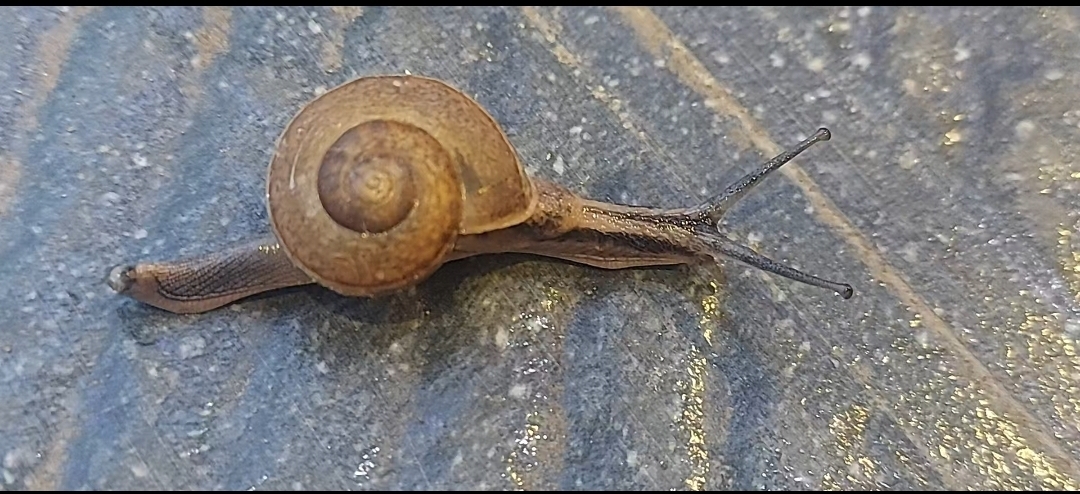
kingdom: Animalia
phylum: Mollusca
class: Gastropoda
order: Stylommatophora
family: Ariophantidae
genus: Ariophanta
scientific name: Ariophanta exilis
